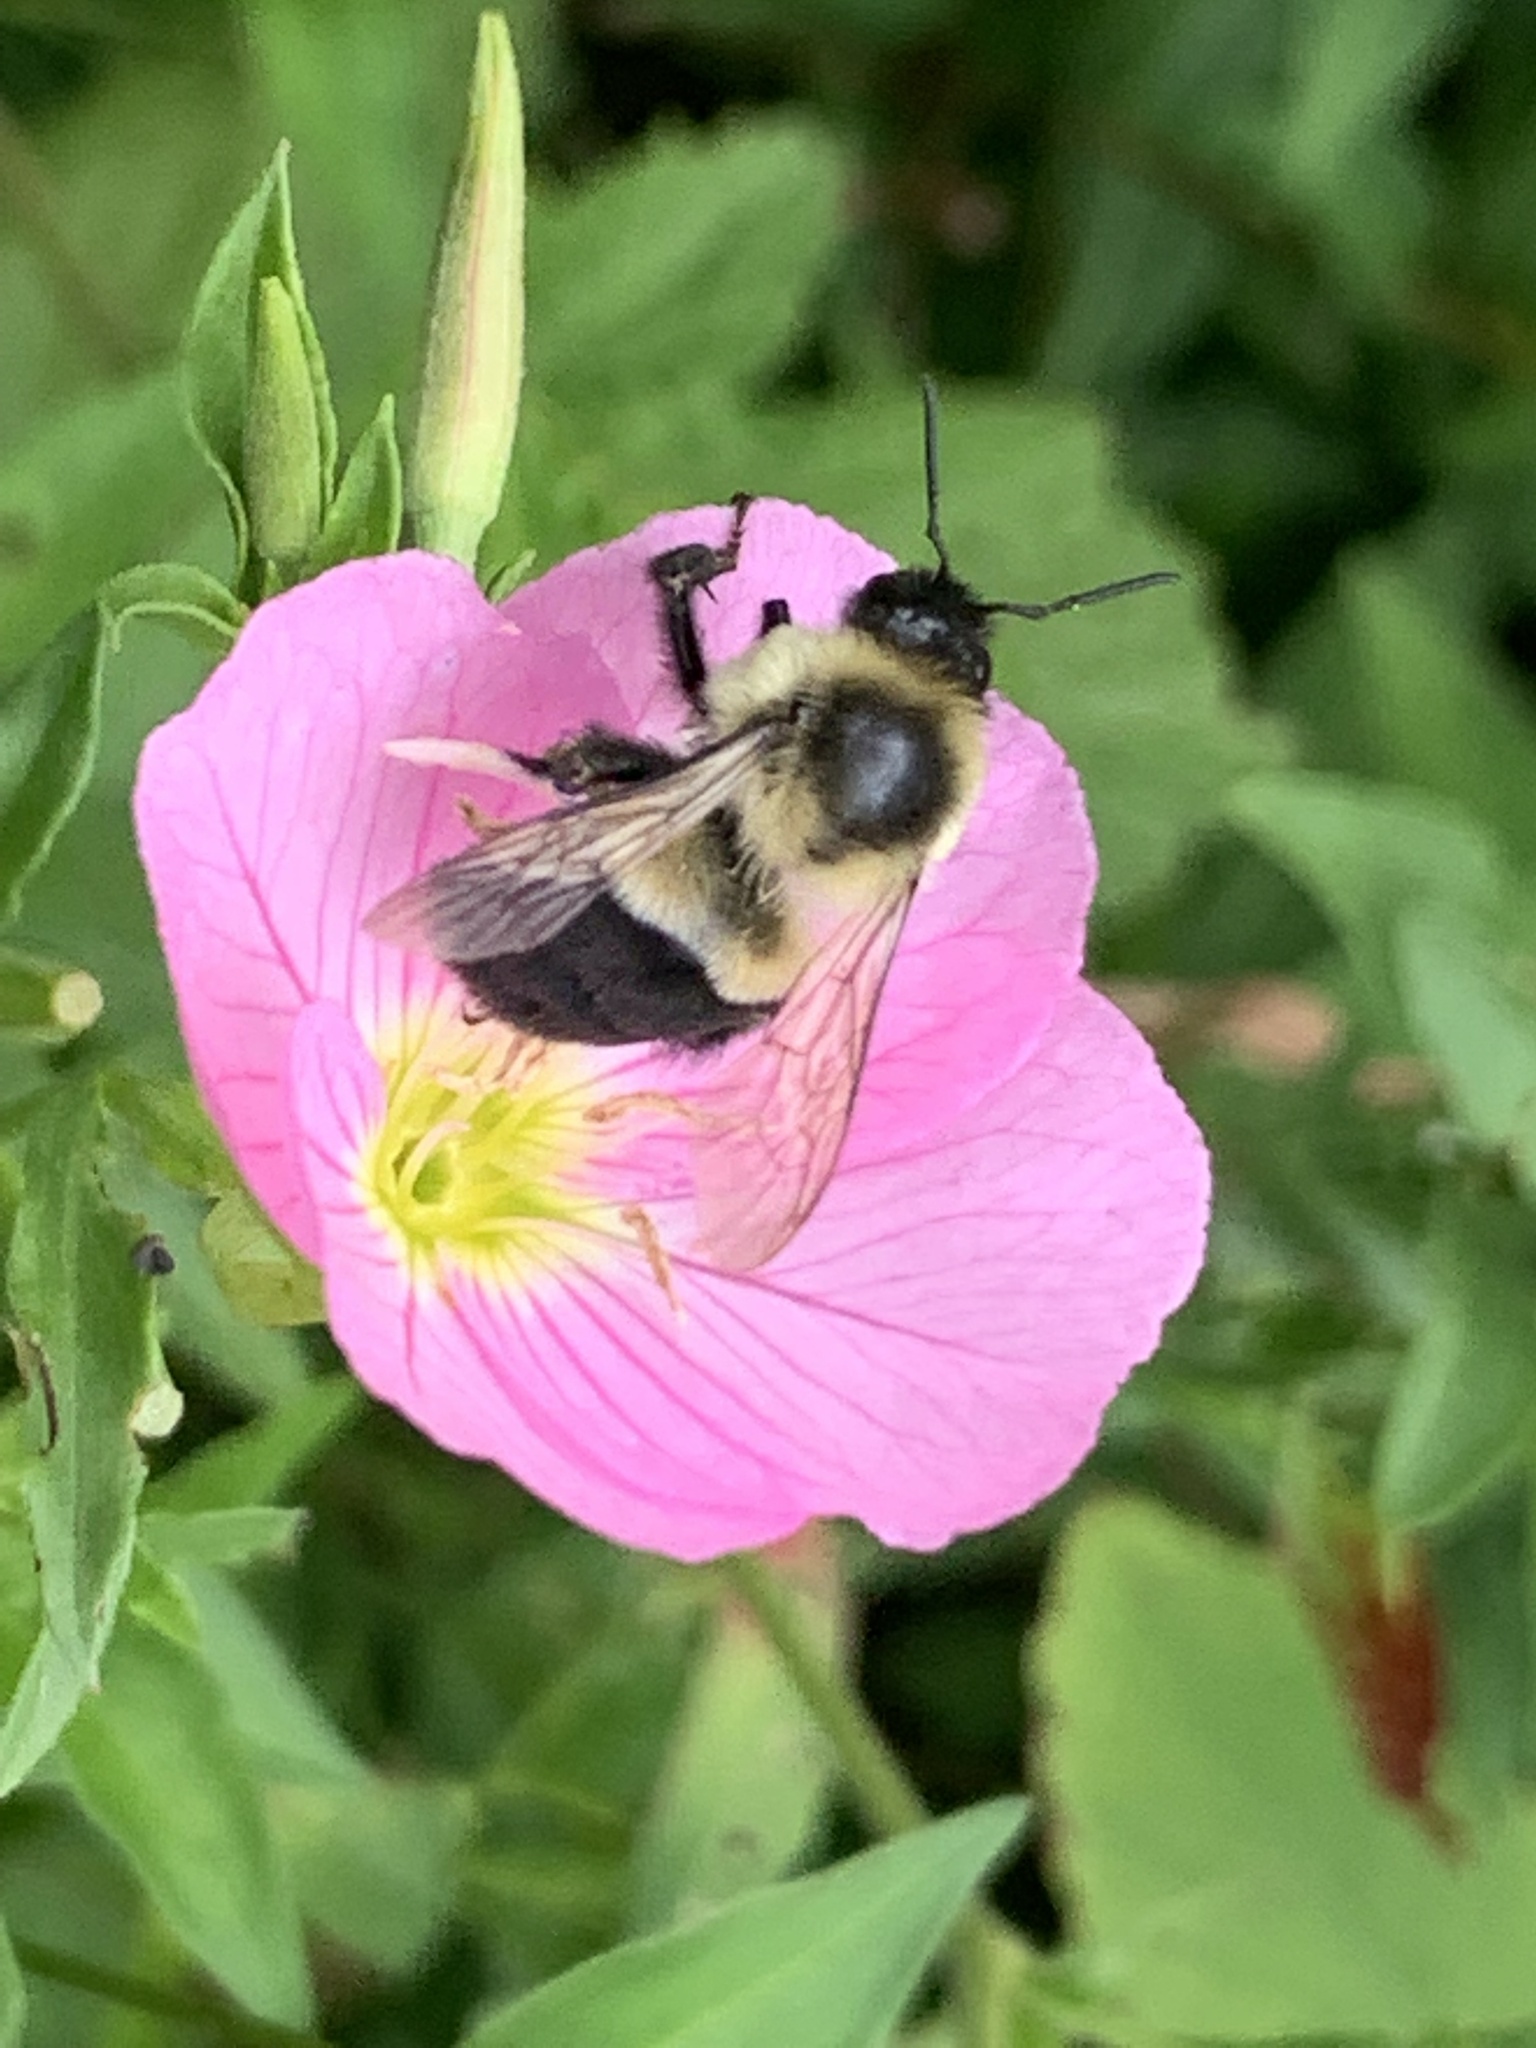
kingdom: Animalia
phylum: Arthropoda
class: Insecta
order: Hymenoptera
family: Apidae
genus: Bombus
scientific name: Bombus impatiens
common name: Common eastern bumble bee
